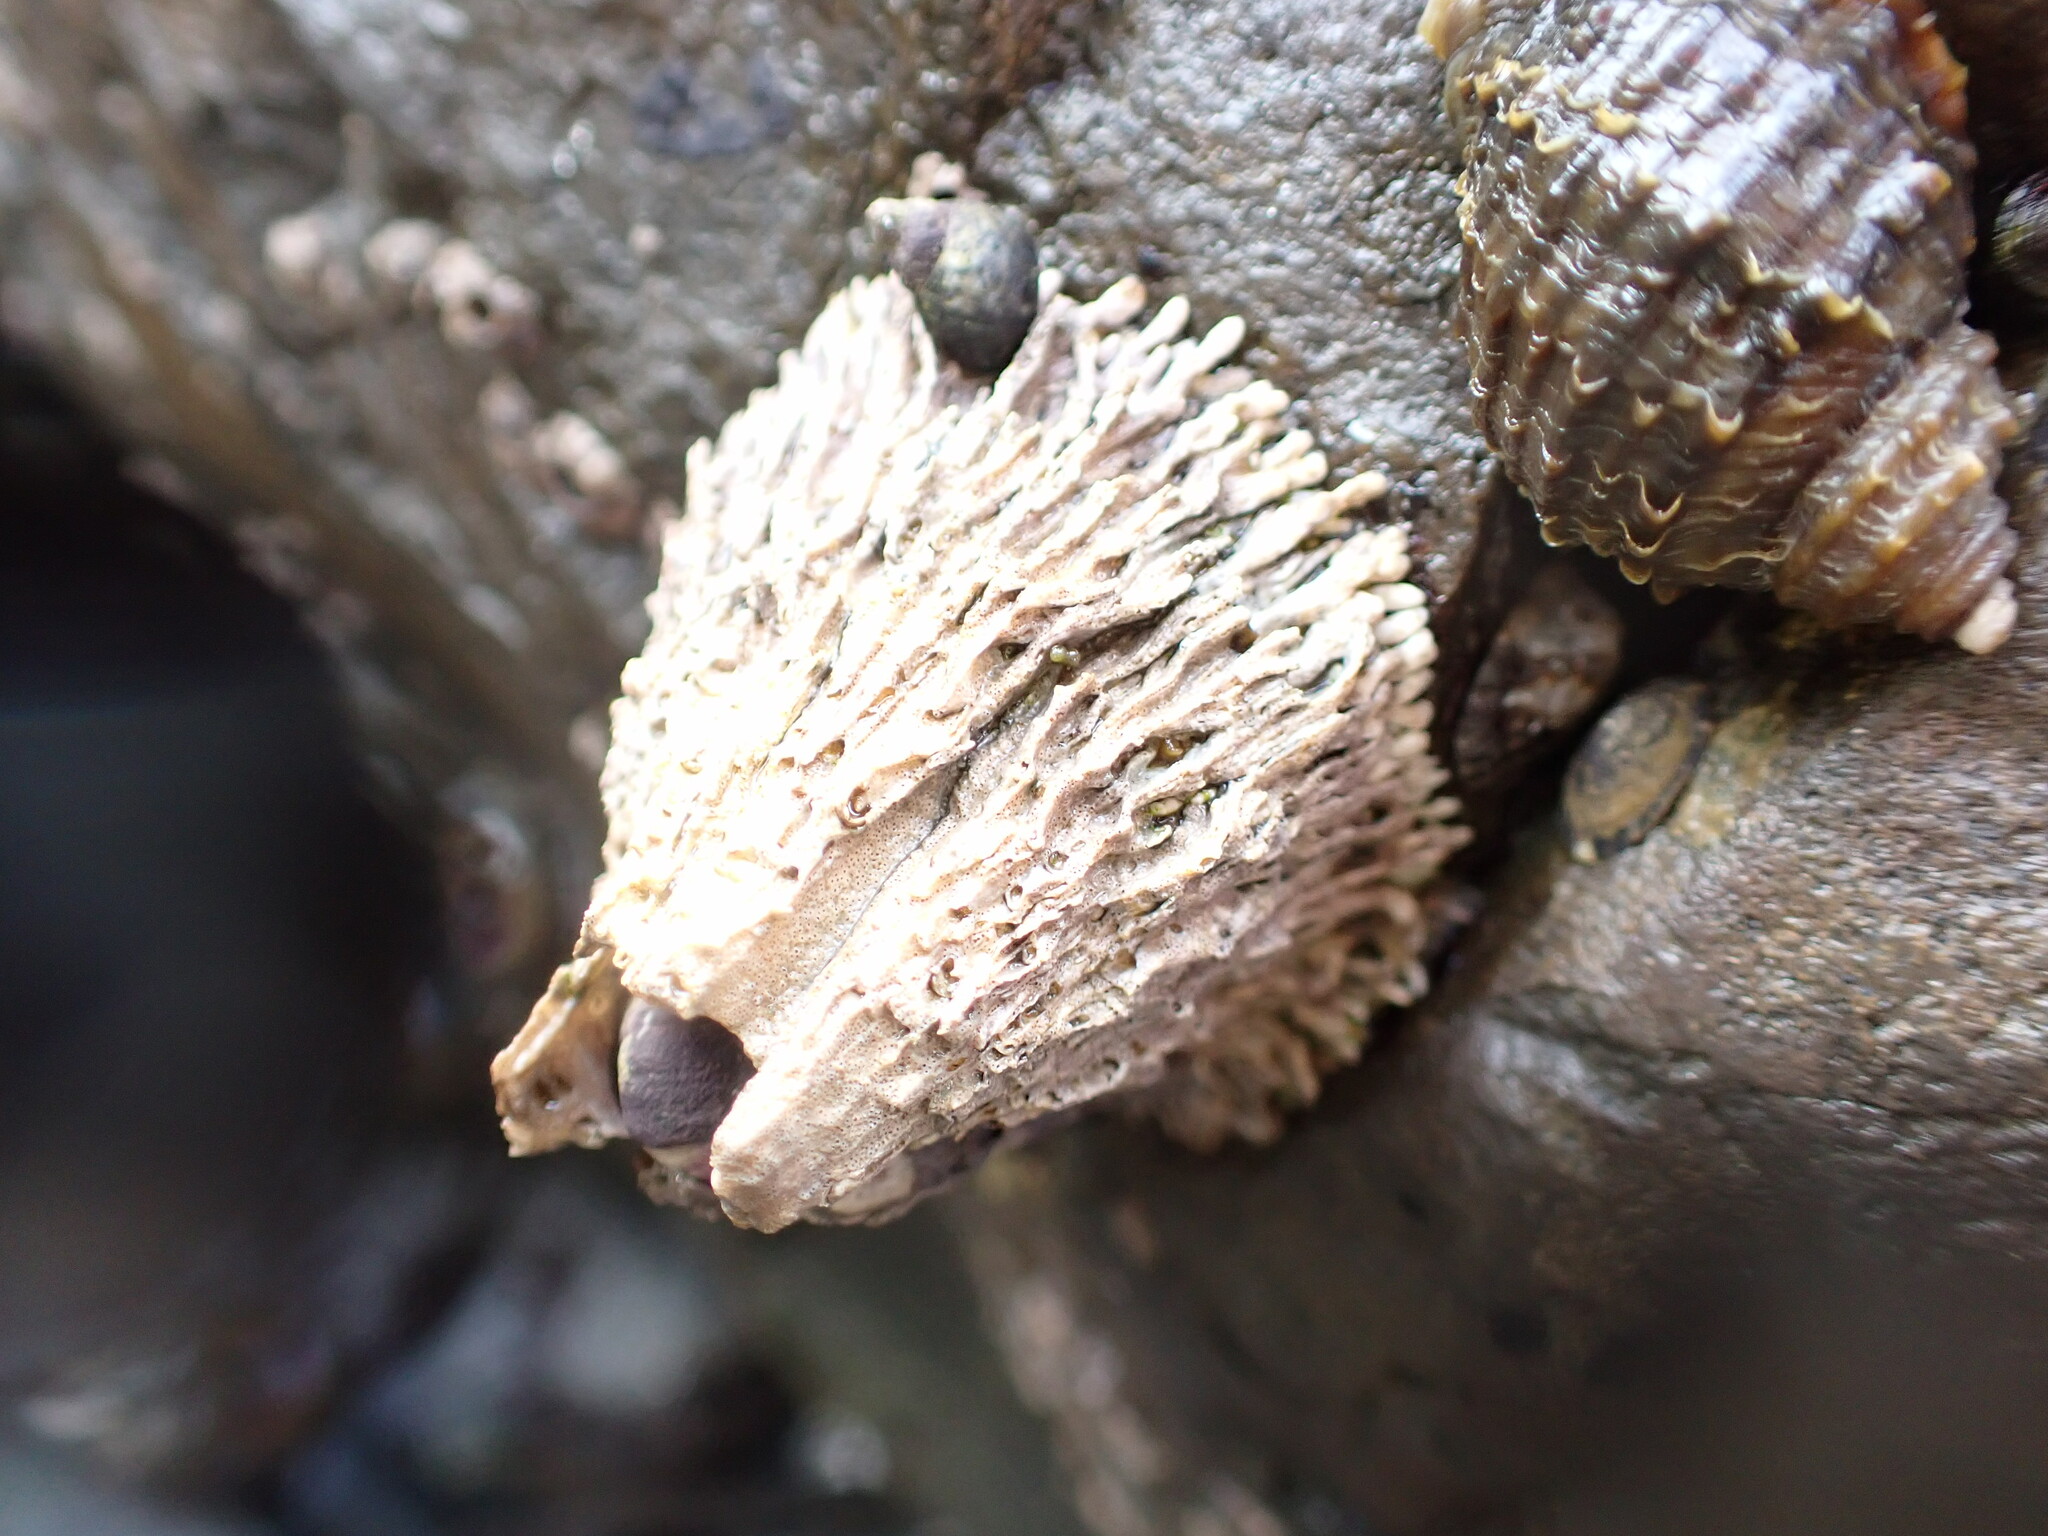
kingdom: Animalia
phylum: Arthropoda
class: Maxillopoda
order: Sessilia
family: Archaeobalanidae
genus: Semibalanus
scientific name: Semibalanus cariosus
